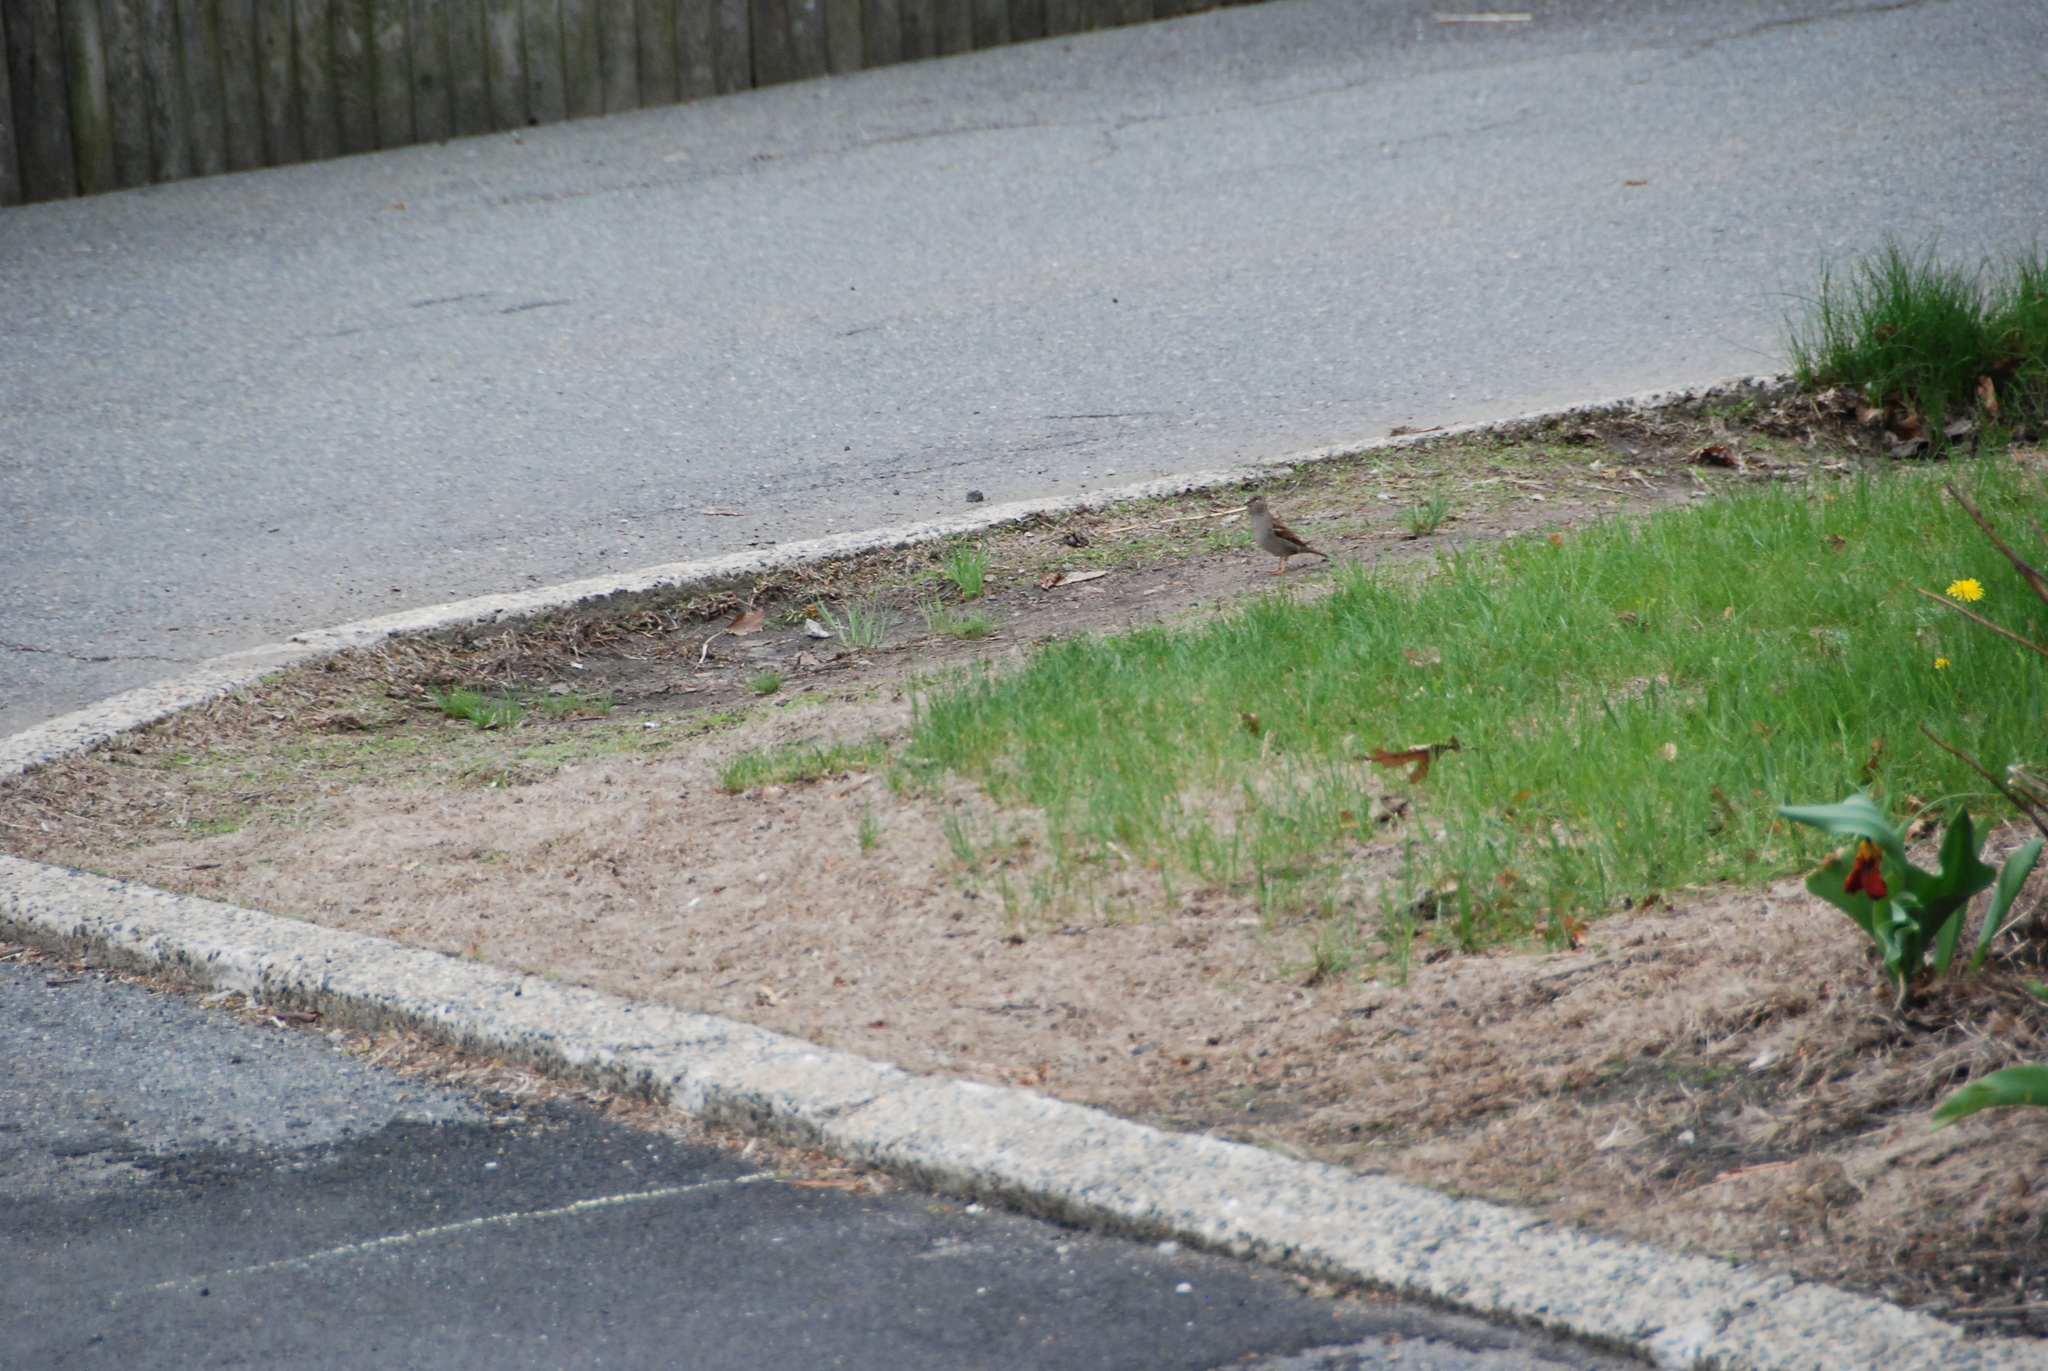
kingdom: Animalia
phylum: Chordata
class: Aves
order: Passeriformes
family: Passeridae
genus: Passer
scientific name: Passer domesticus
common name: House sparrow
